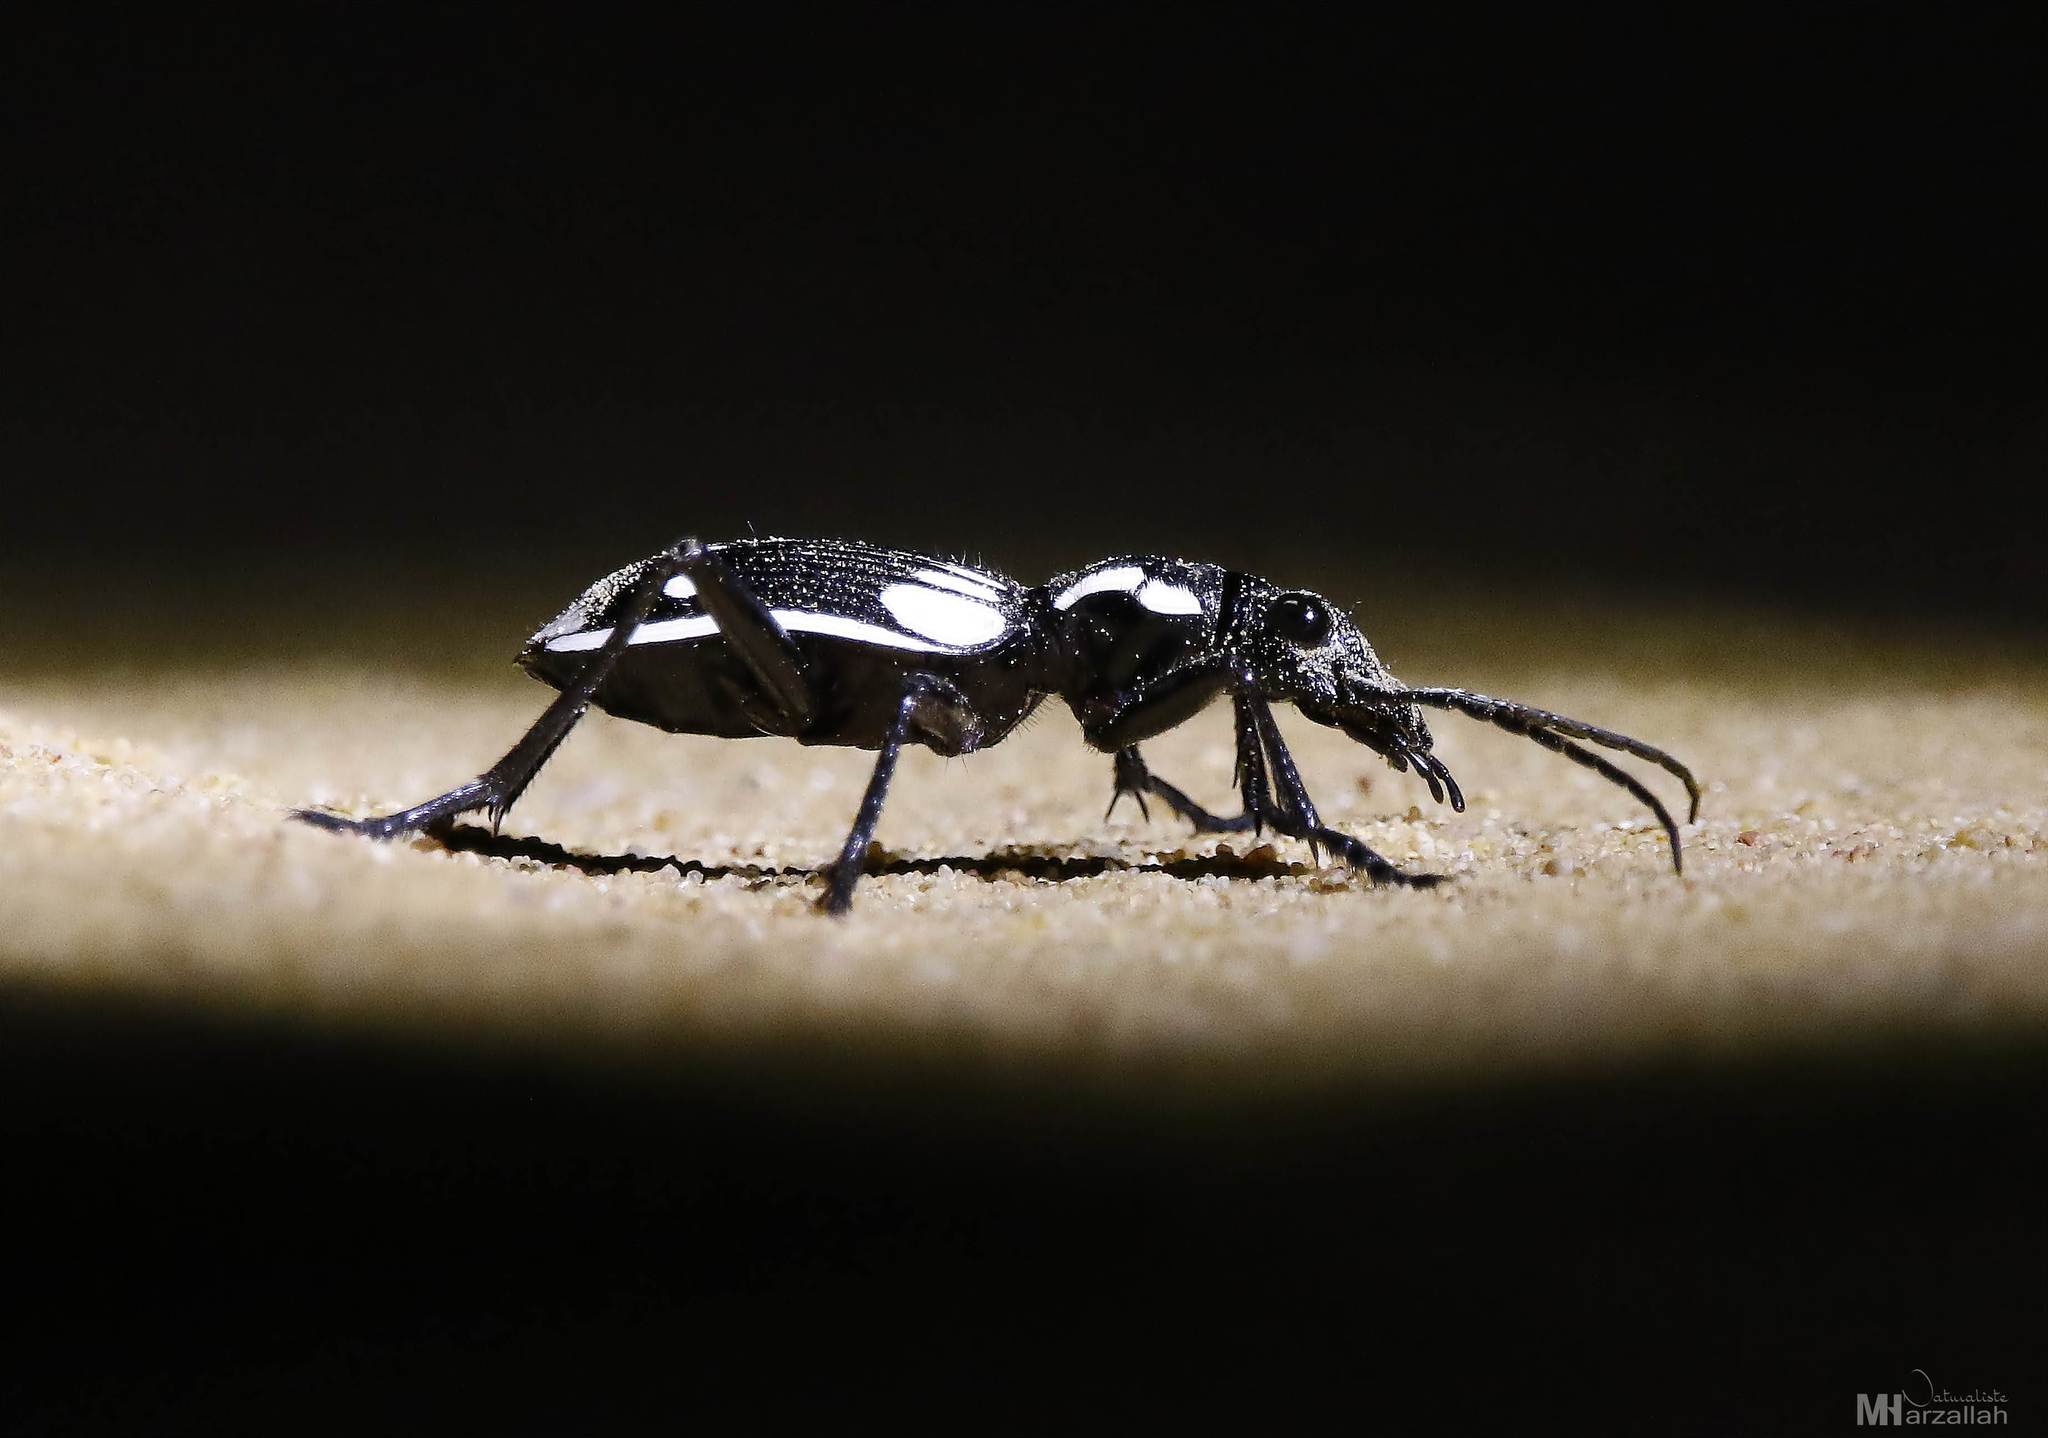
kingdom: Animalia
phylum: Arthropoda
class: Insecta
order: Coleoptera
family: Carabidae
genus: Anthia
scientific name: Anthia sexmaculata
